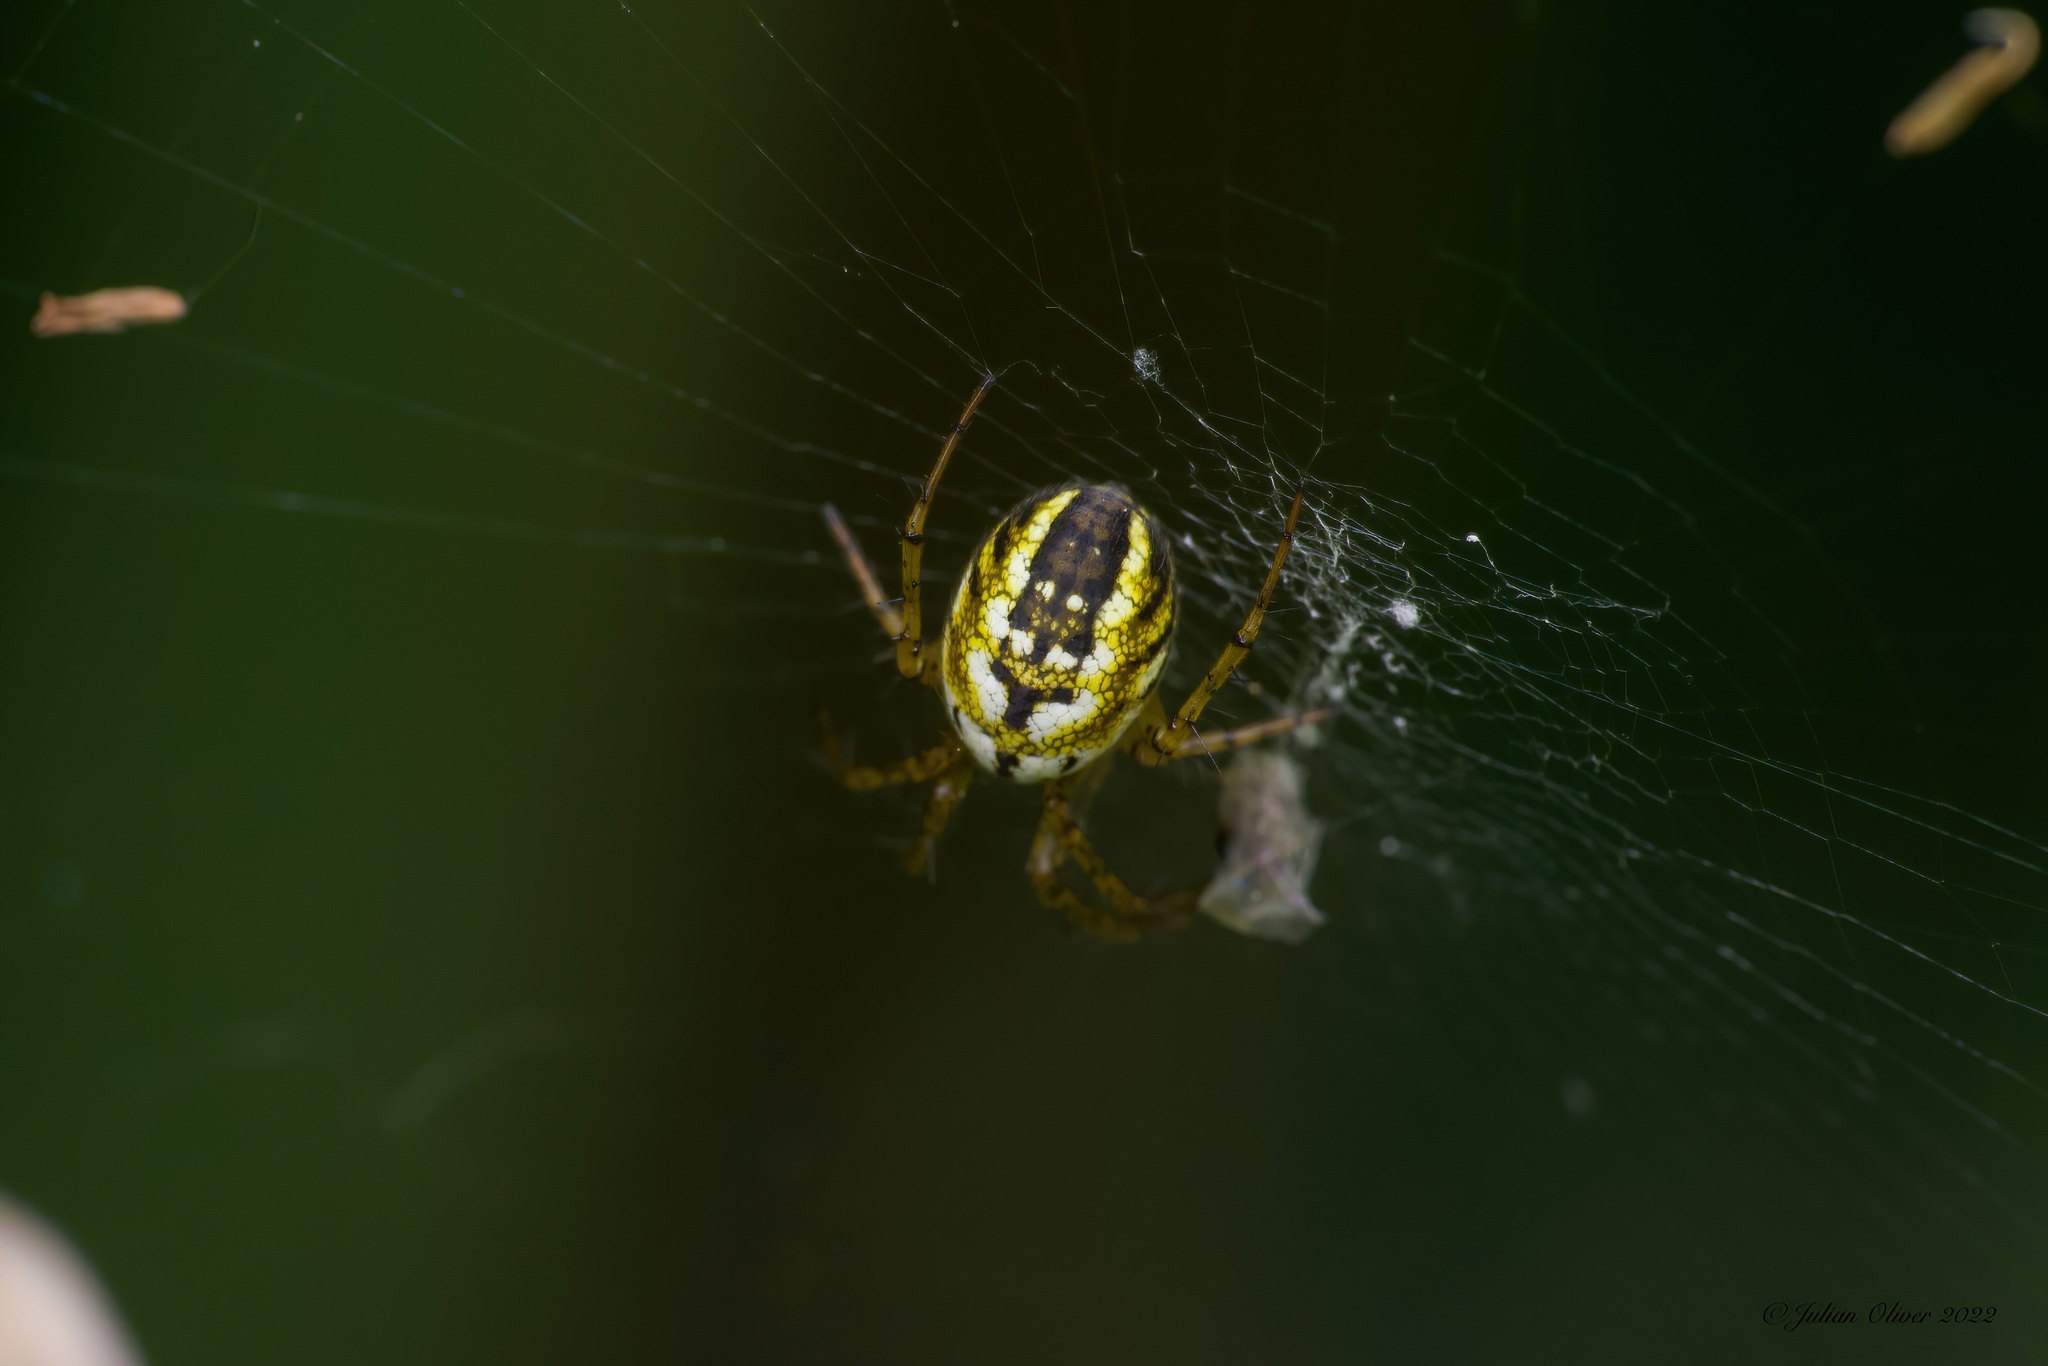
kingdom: Animalia
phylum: Arthropoda
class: Arachnida
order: Araneae
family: Araneidae
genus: Mangora
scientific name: Mangora acalypha
